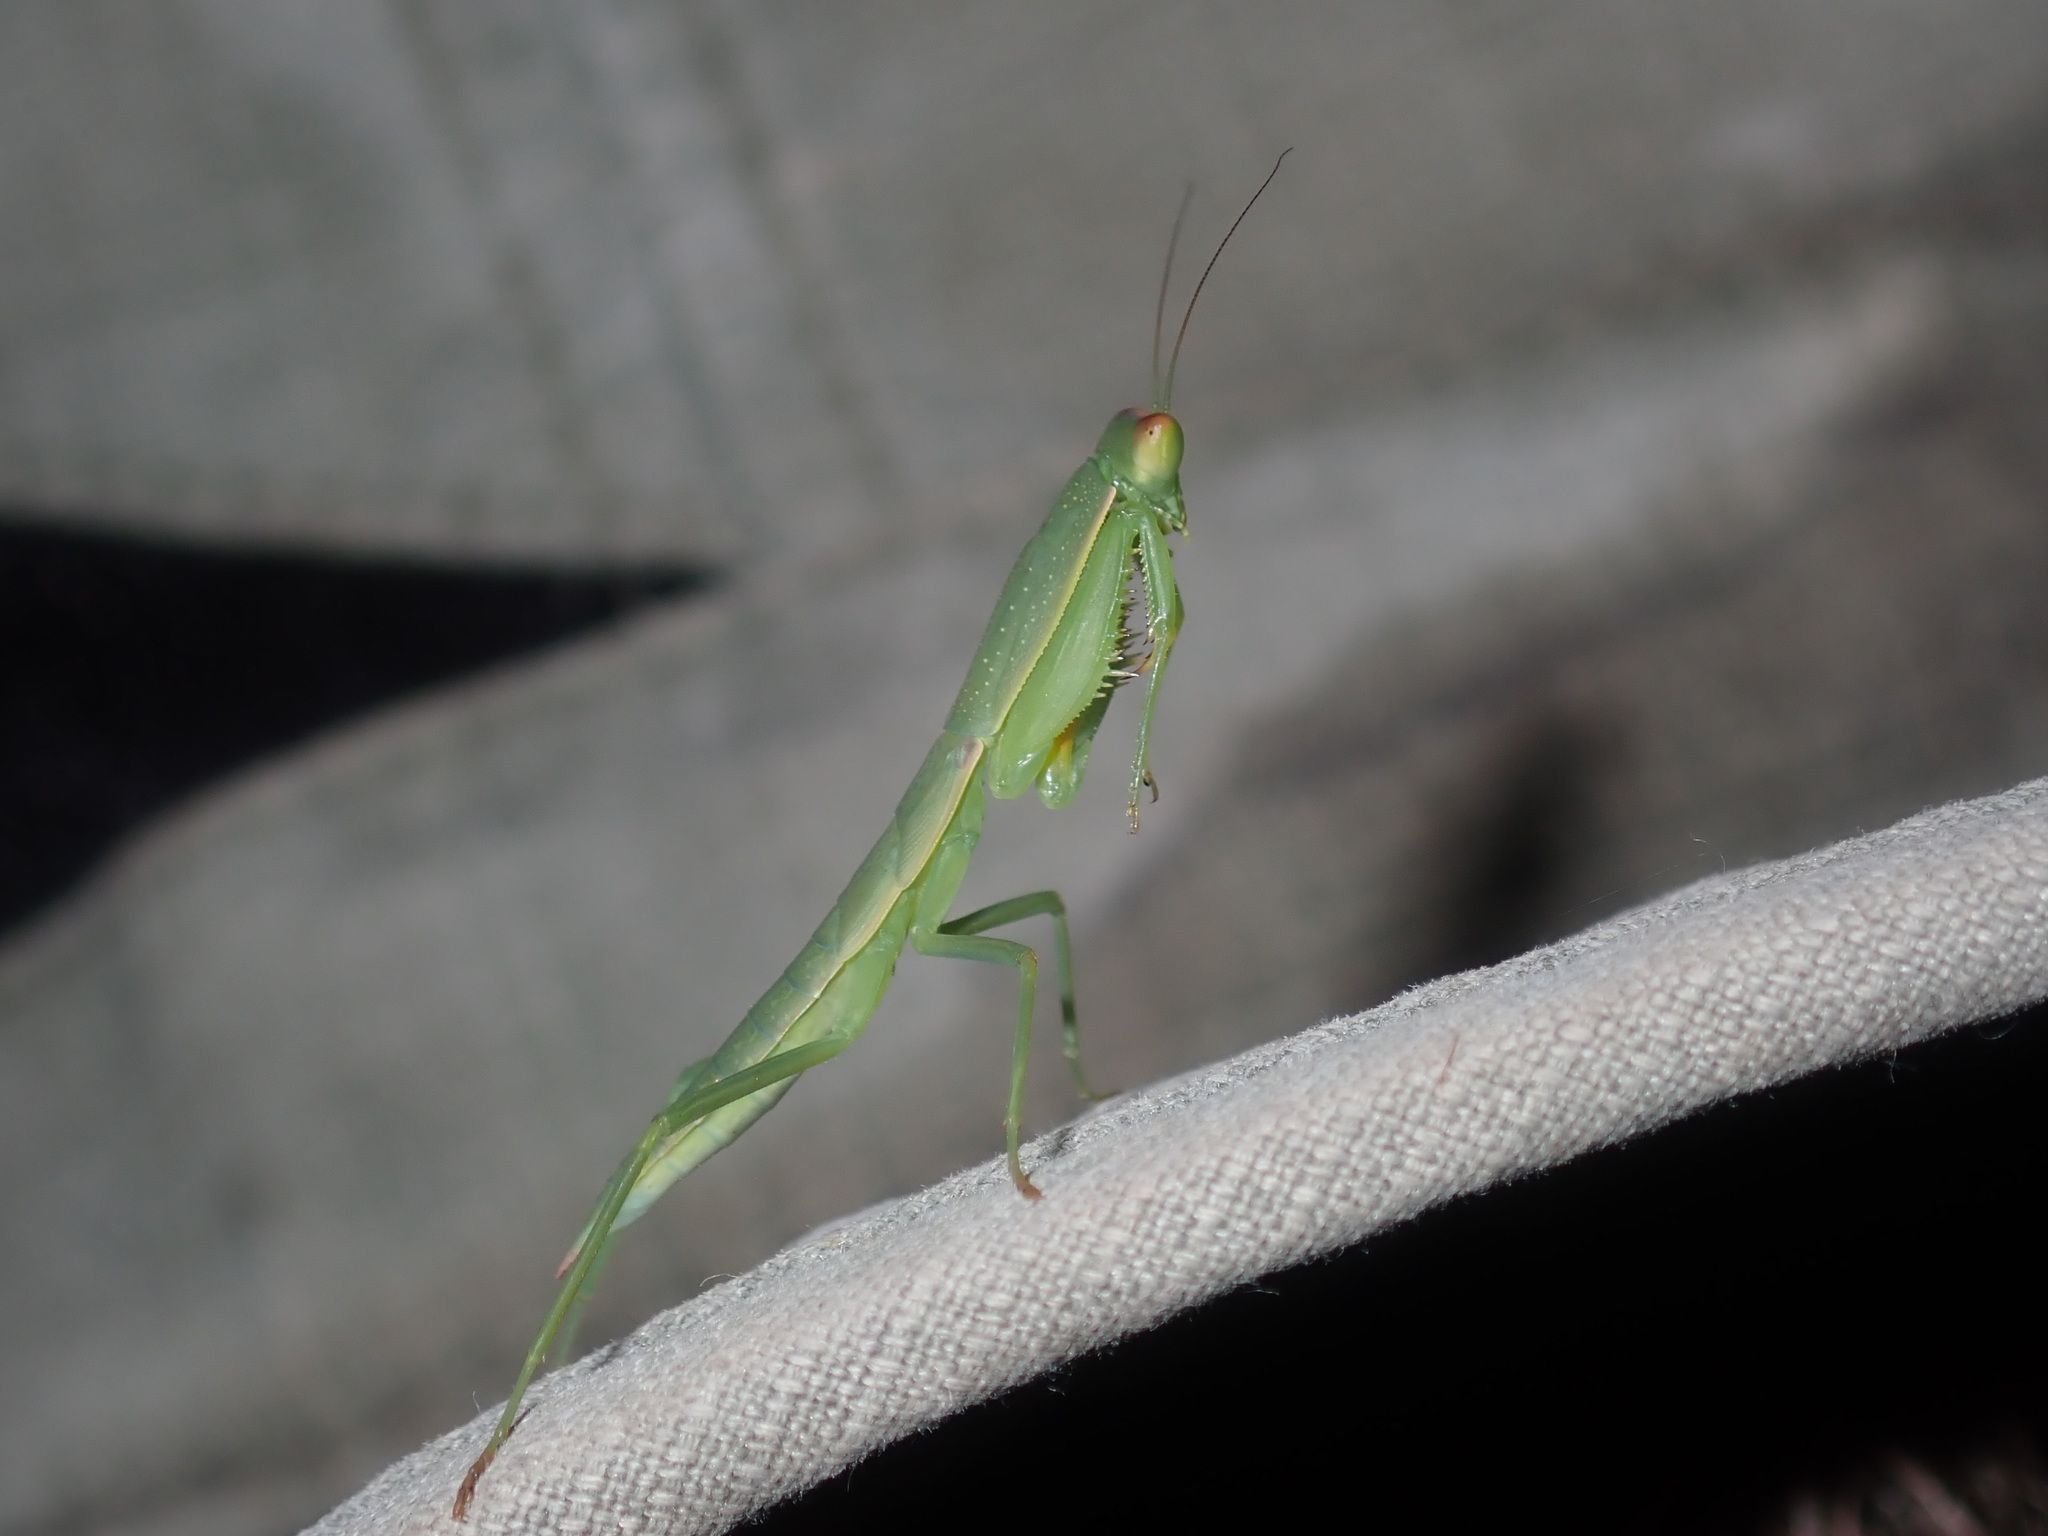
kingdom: Animalia
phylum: Arthropoda
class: Insecta
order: Mantodea
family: Mantidae
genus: Orthodera
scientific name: Orthodera ministralis
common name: Mantis
